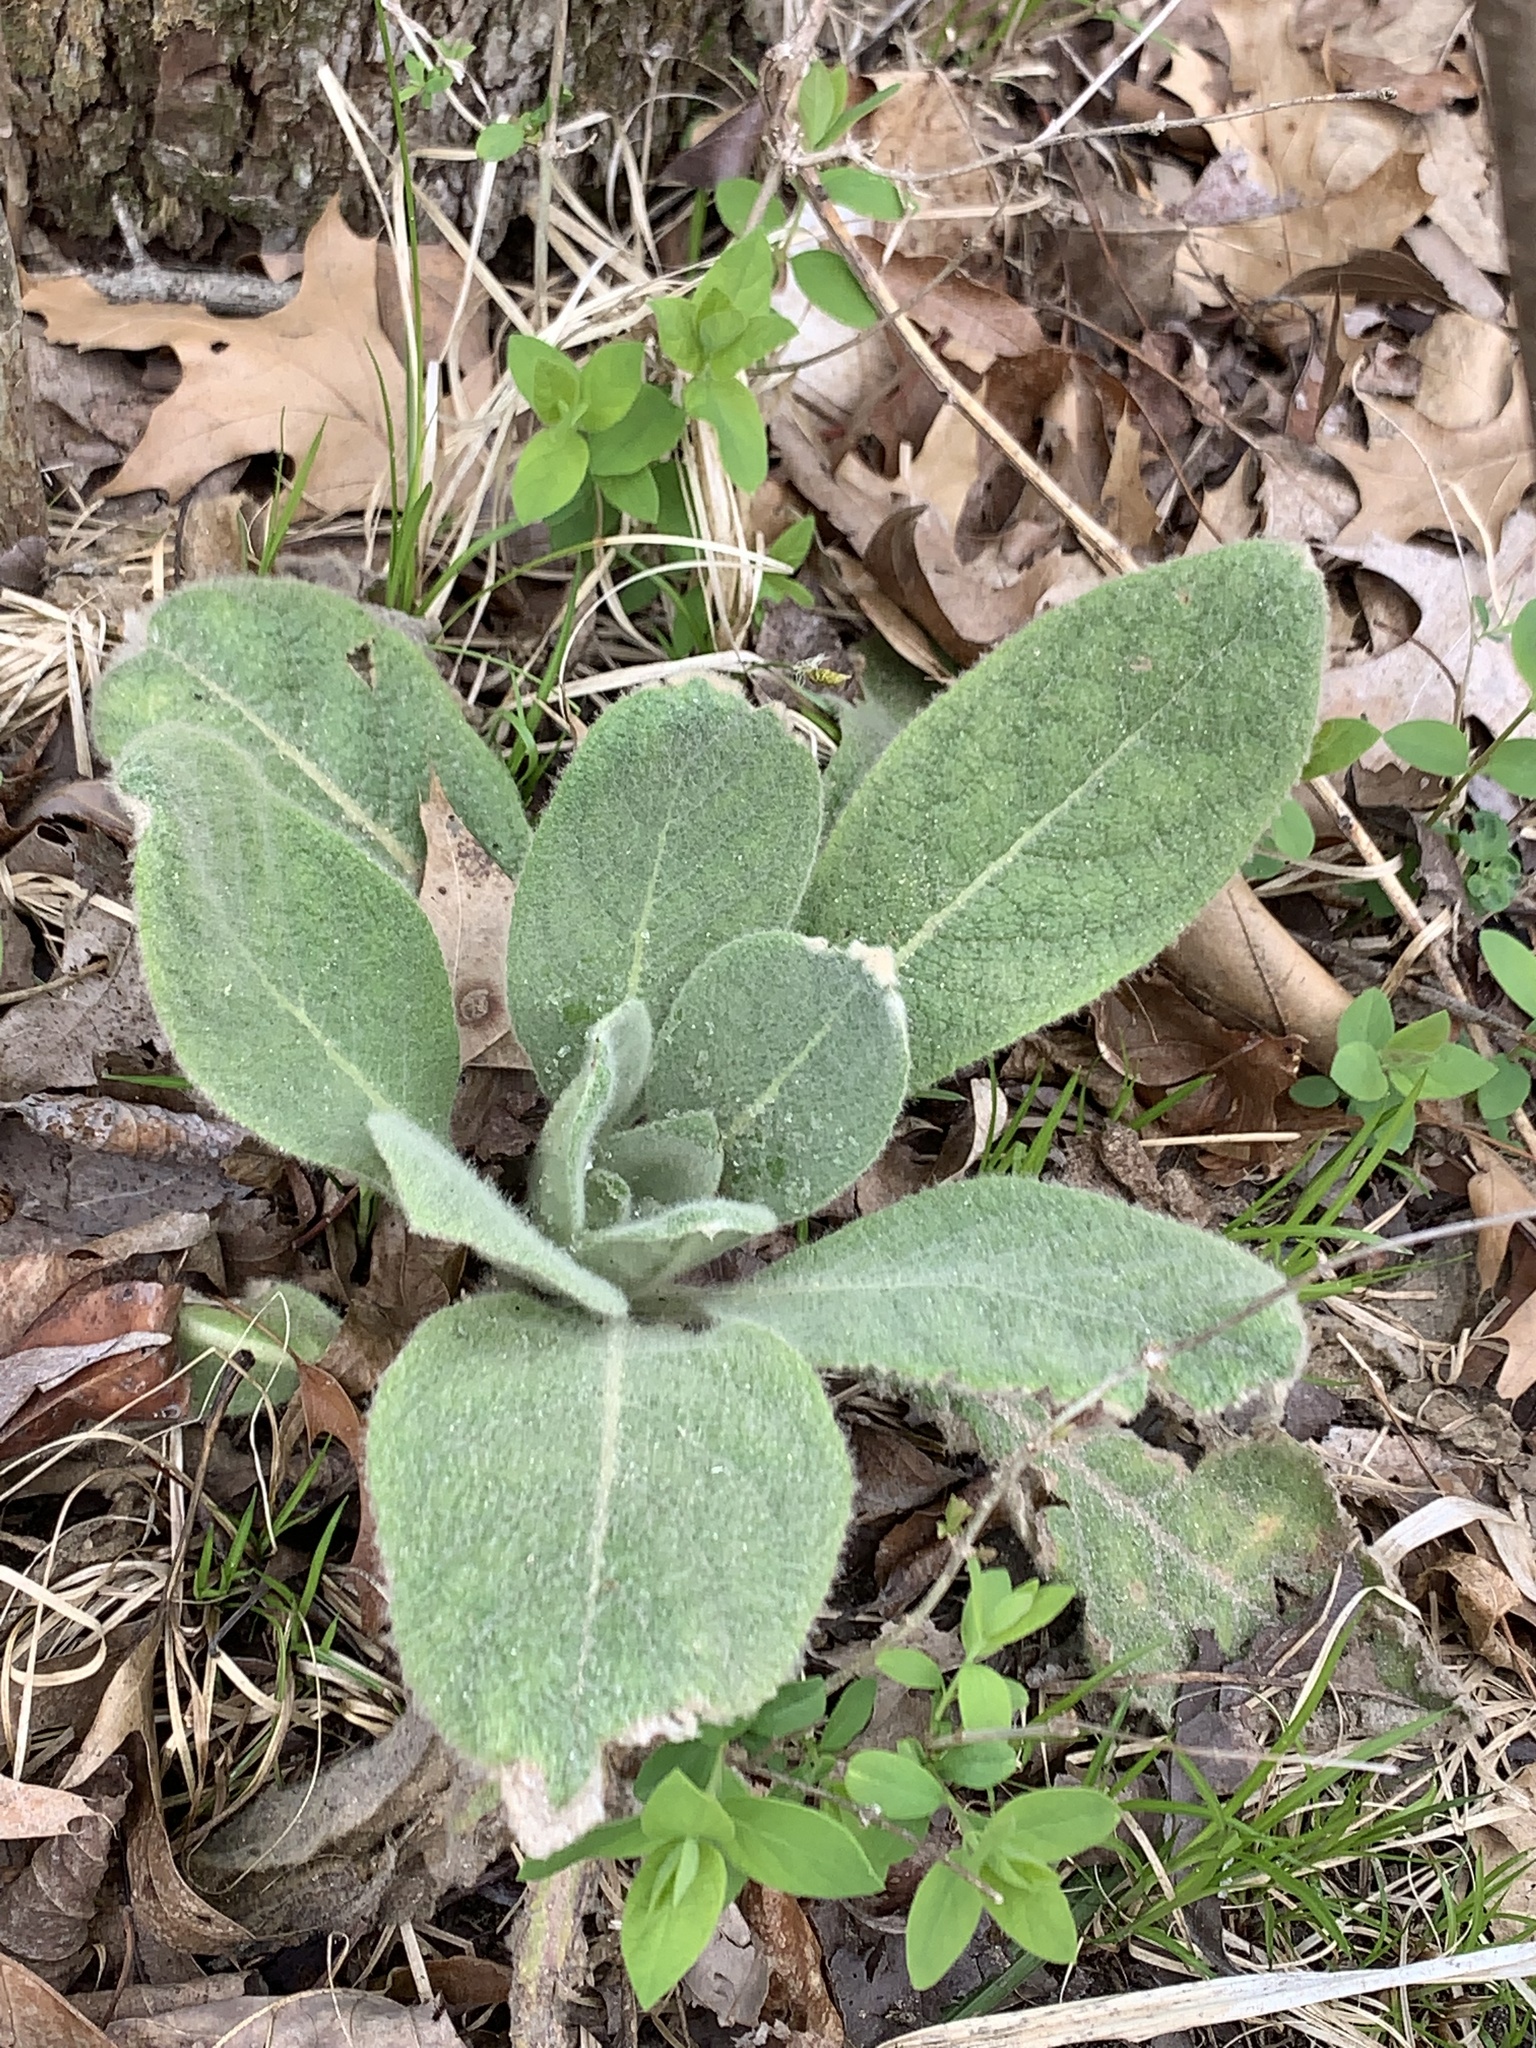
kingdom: Plantae
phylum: Tracheophyta
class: Magnoliopsida
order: Lamiales
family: Scrophulariaceae
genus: Verbascum
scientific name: Verbascum thapsus
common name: Common mullein
